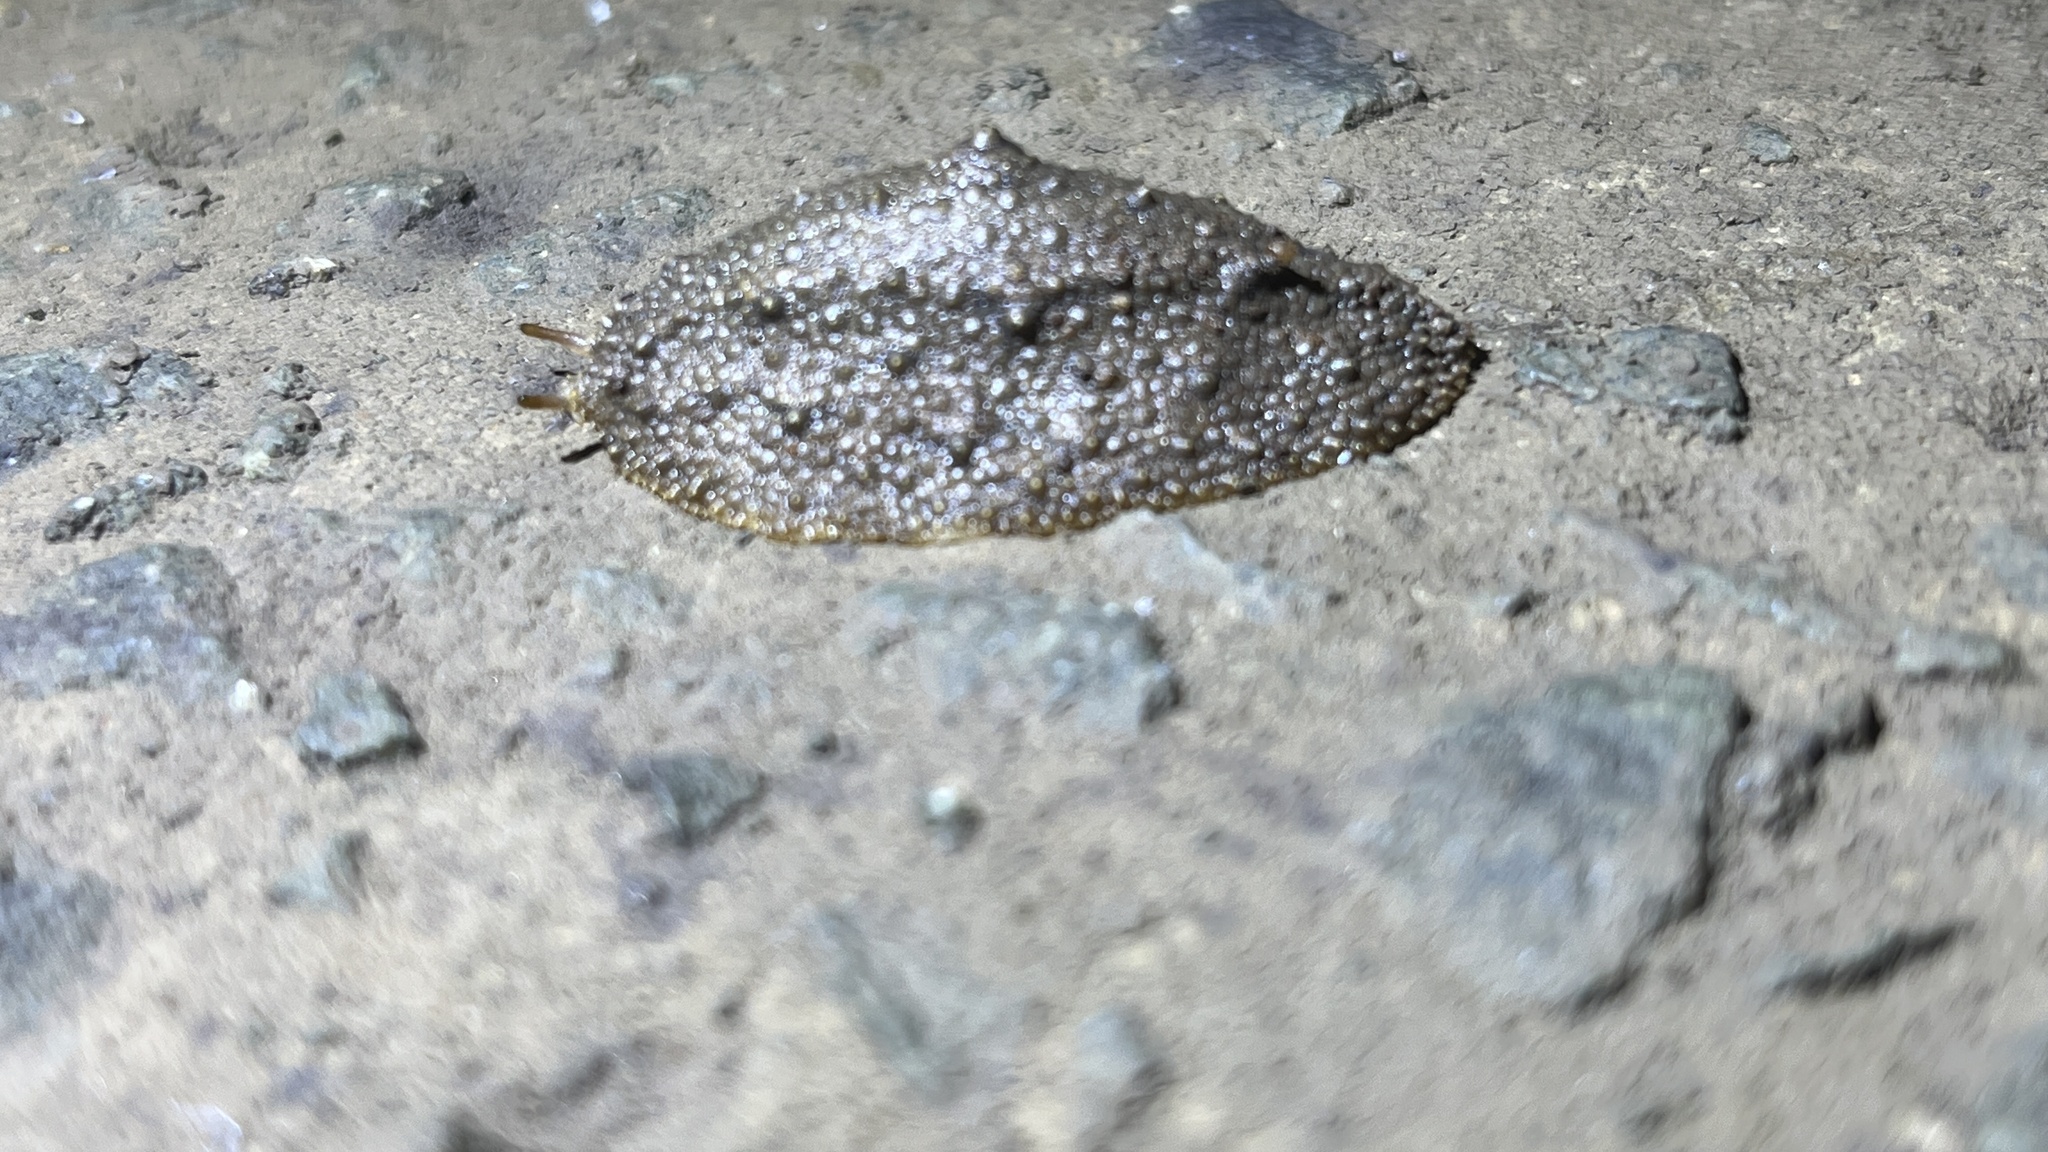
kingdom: Animalia
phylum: Mollusca
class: Gastropoda
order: Systellommatophora
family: Onchidiidae
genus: Platevindex
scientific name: Platevindex luteus
